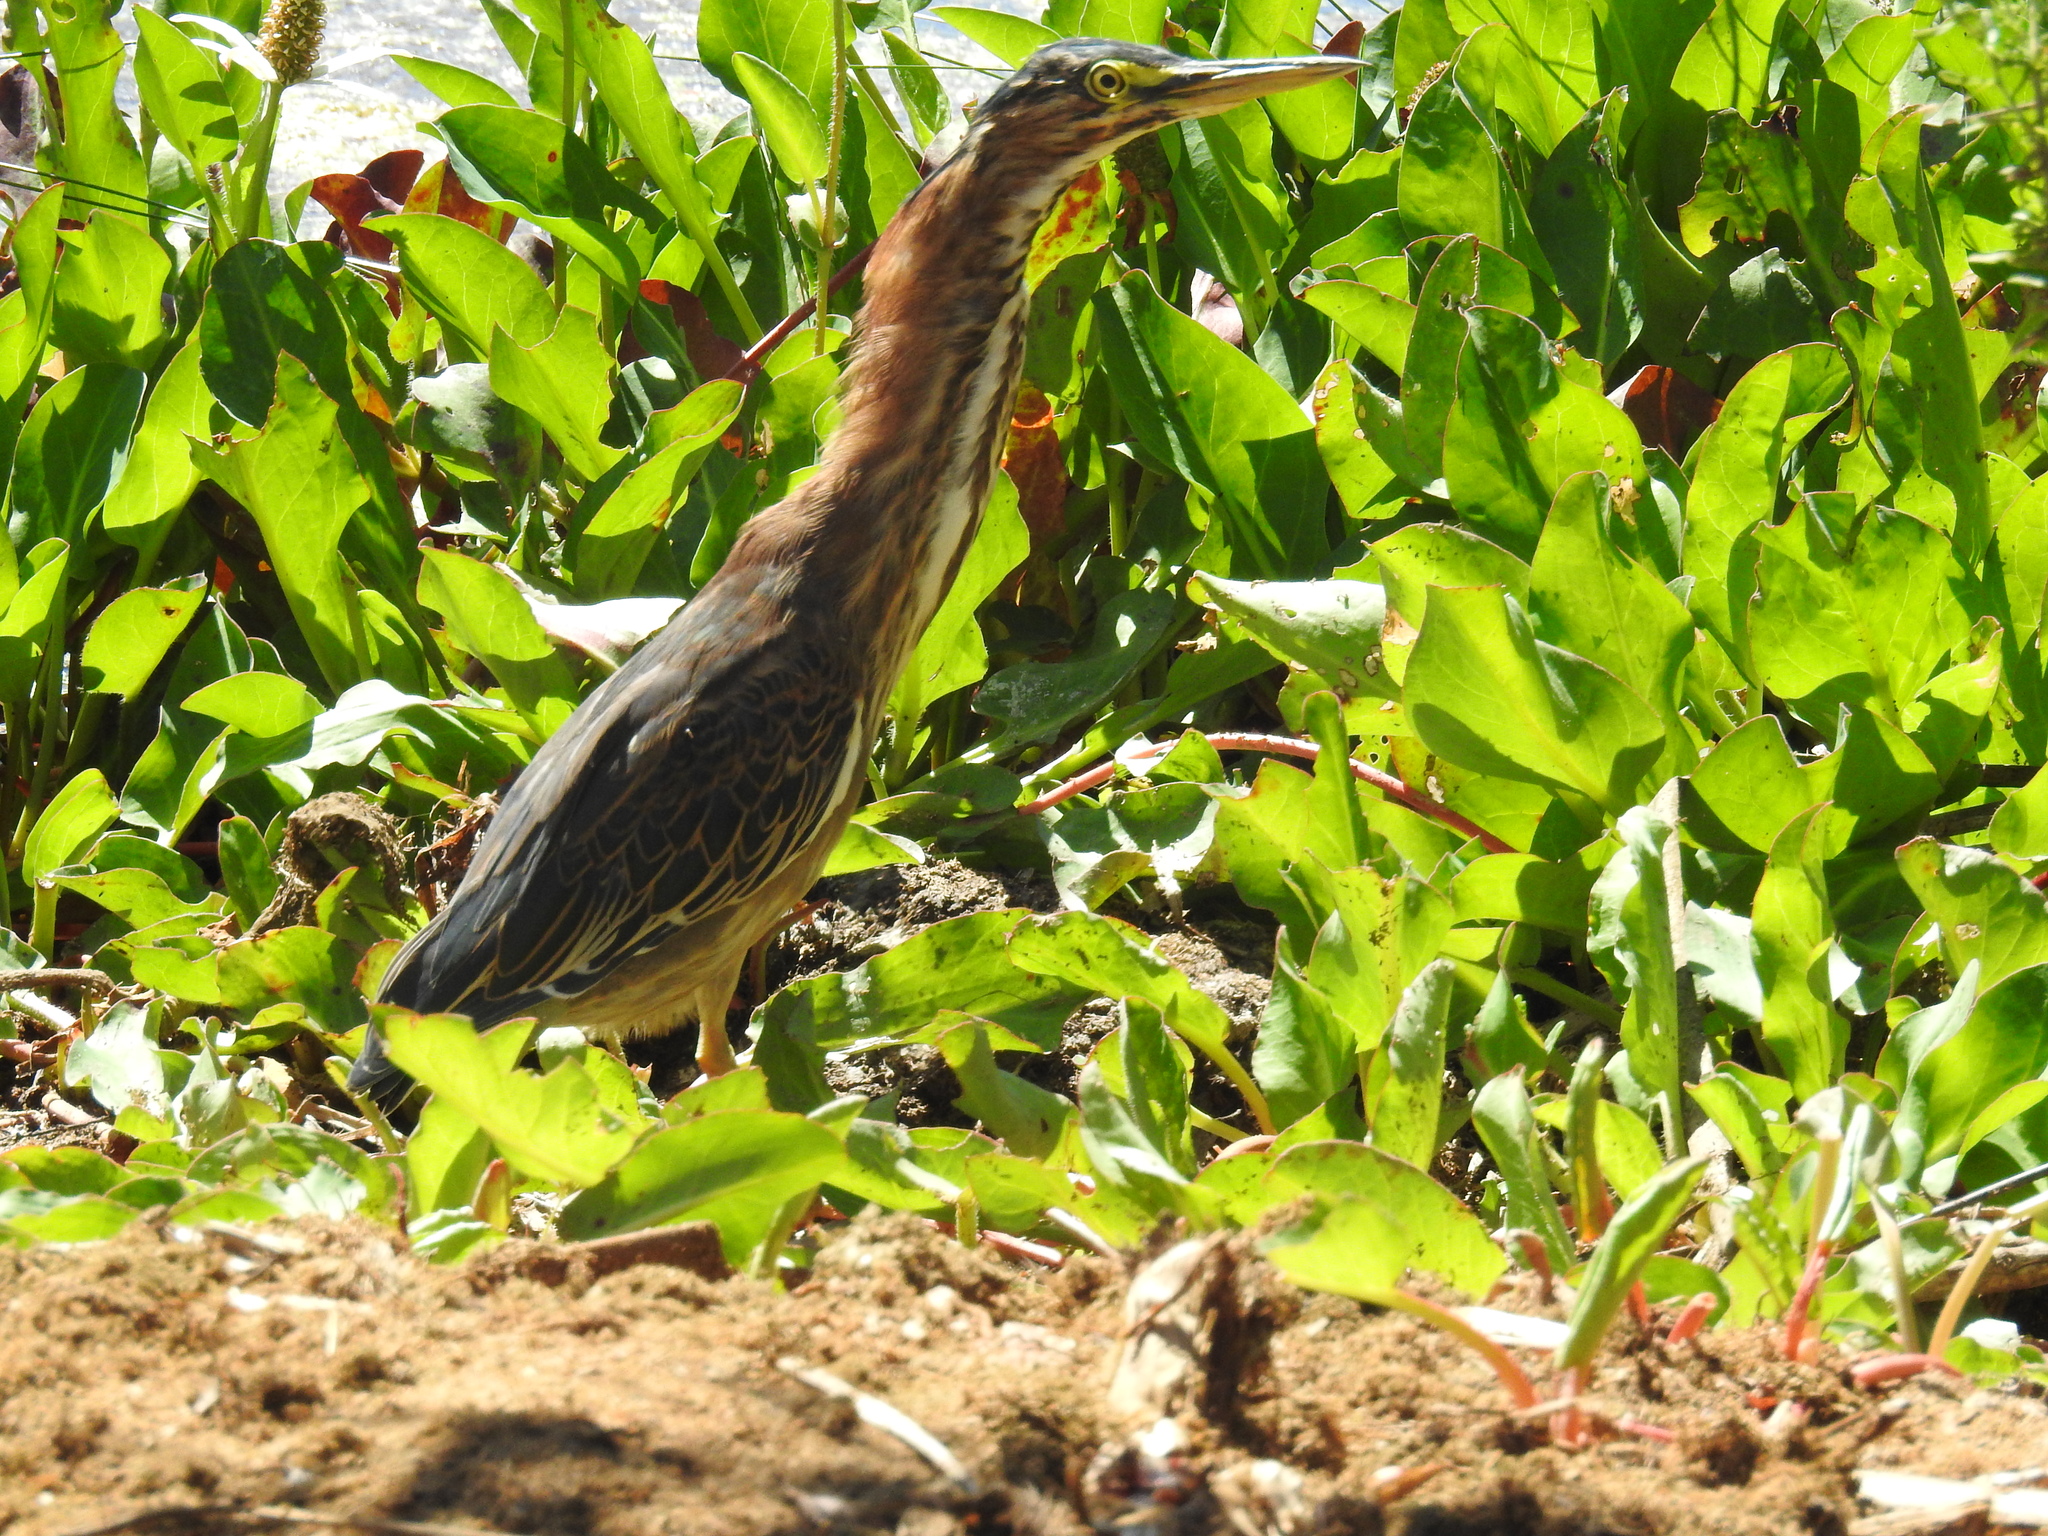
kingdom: Animalia
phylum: Chordata
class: Aves
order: Pelecaniformes
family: Ardeidae
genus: Butorides
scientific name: Butorides virescens
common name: Green heron
